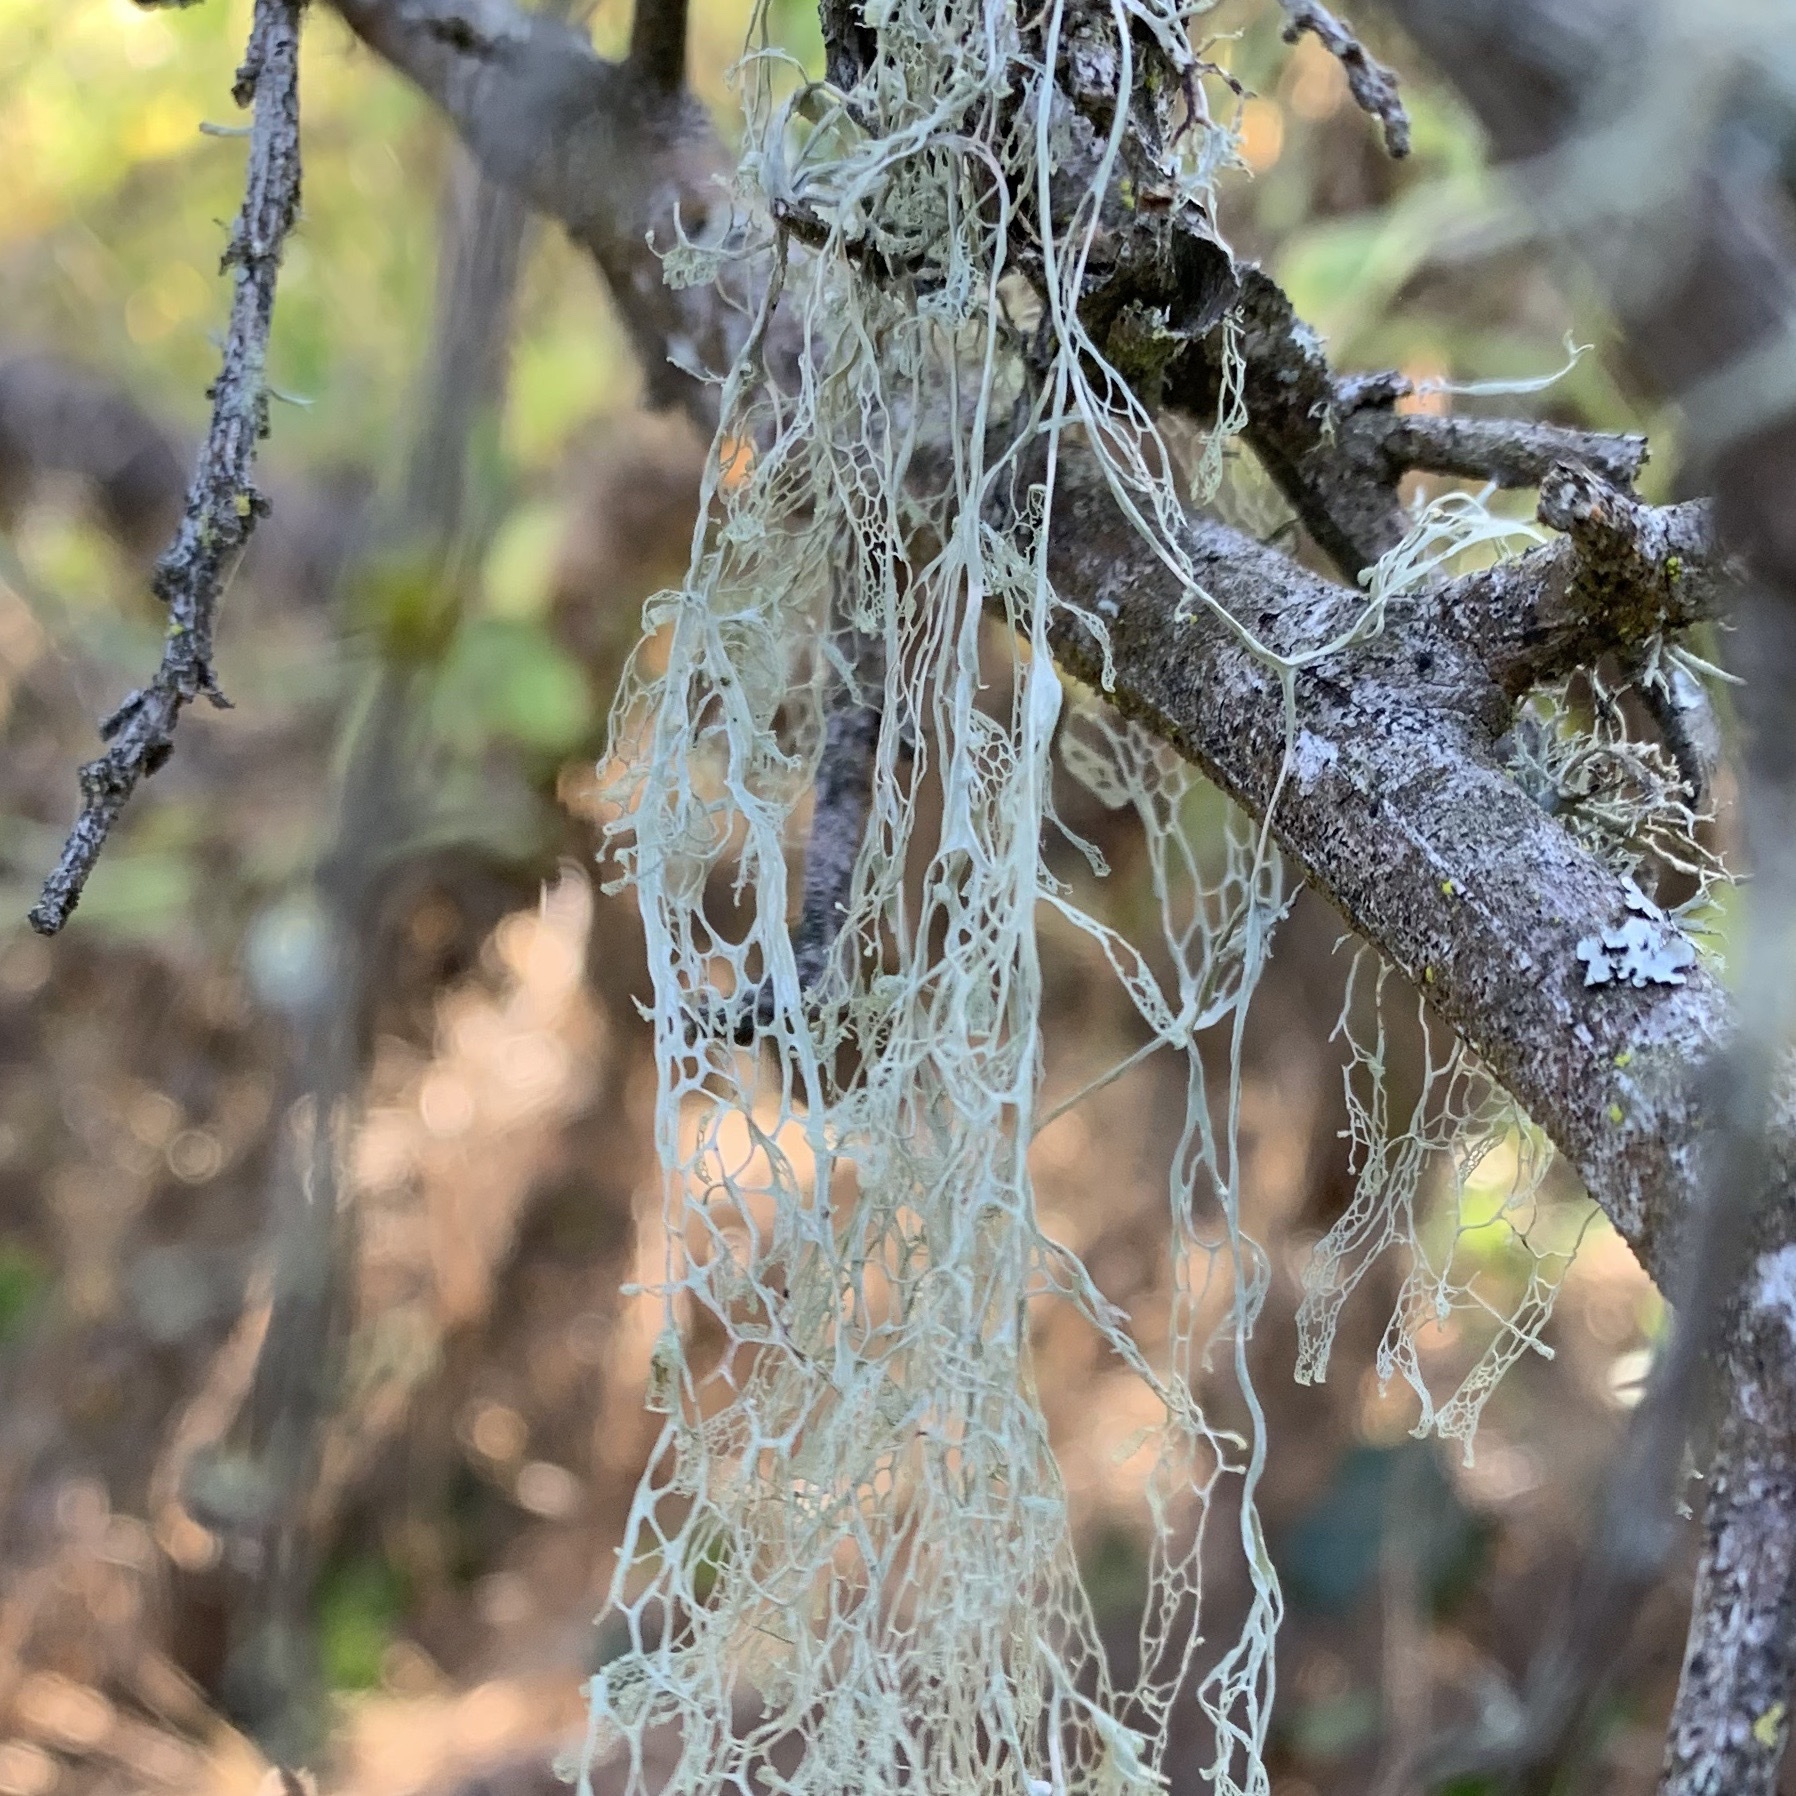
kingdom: Fungi
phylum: Ascomycota
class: Lecanoromycetes
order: Lecanorales
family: Ramalinaceae
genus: Ramalina
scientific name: Ramalina menziesii
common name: Lace lichen
